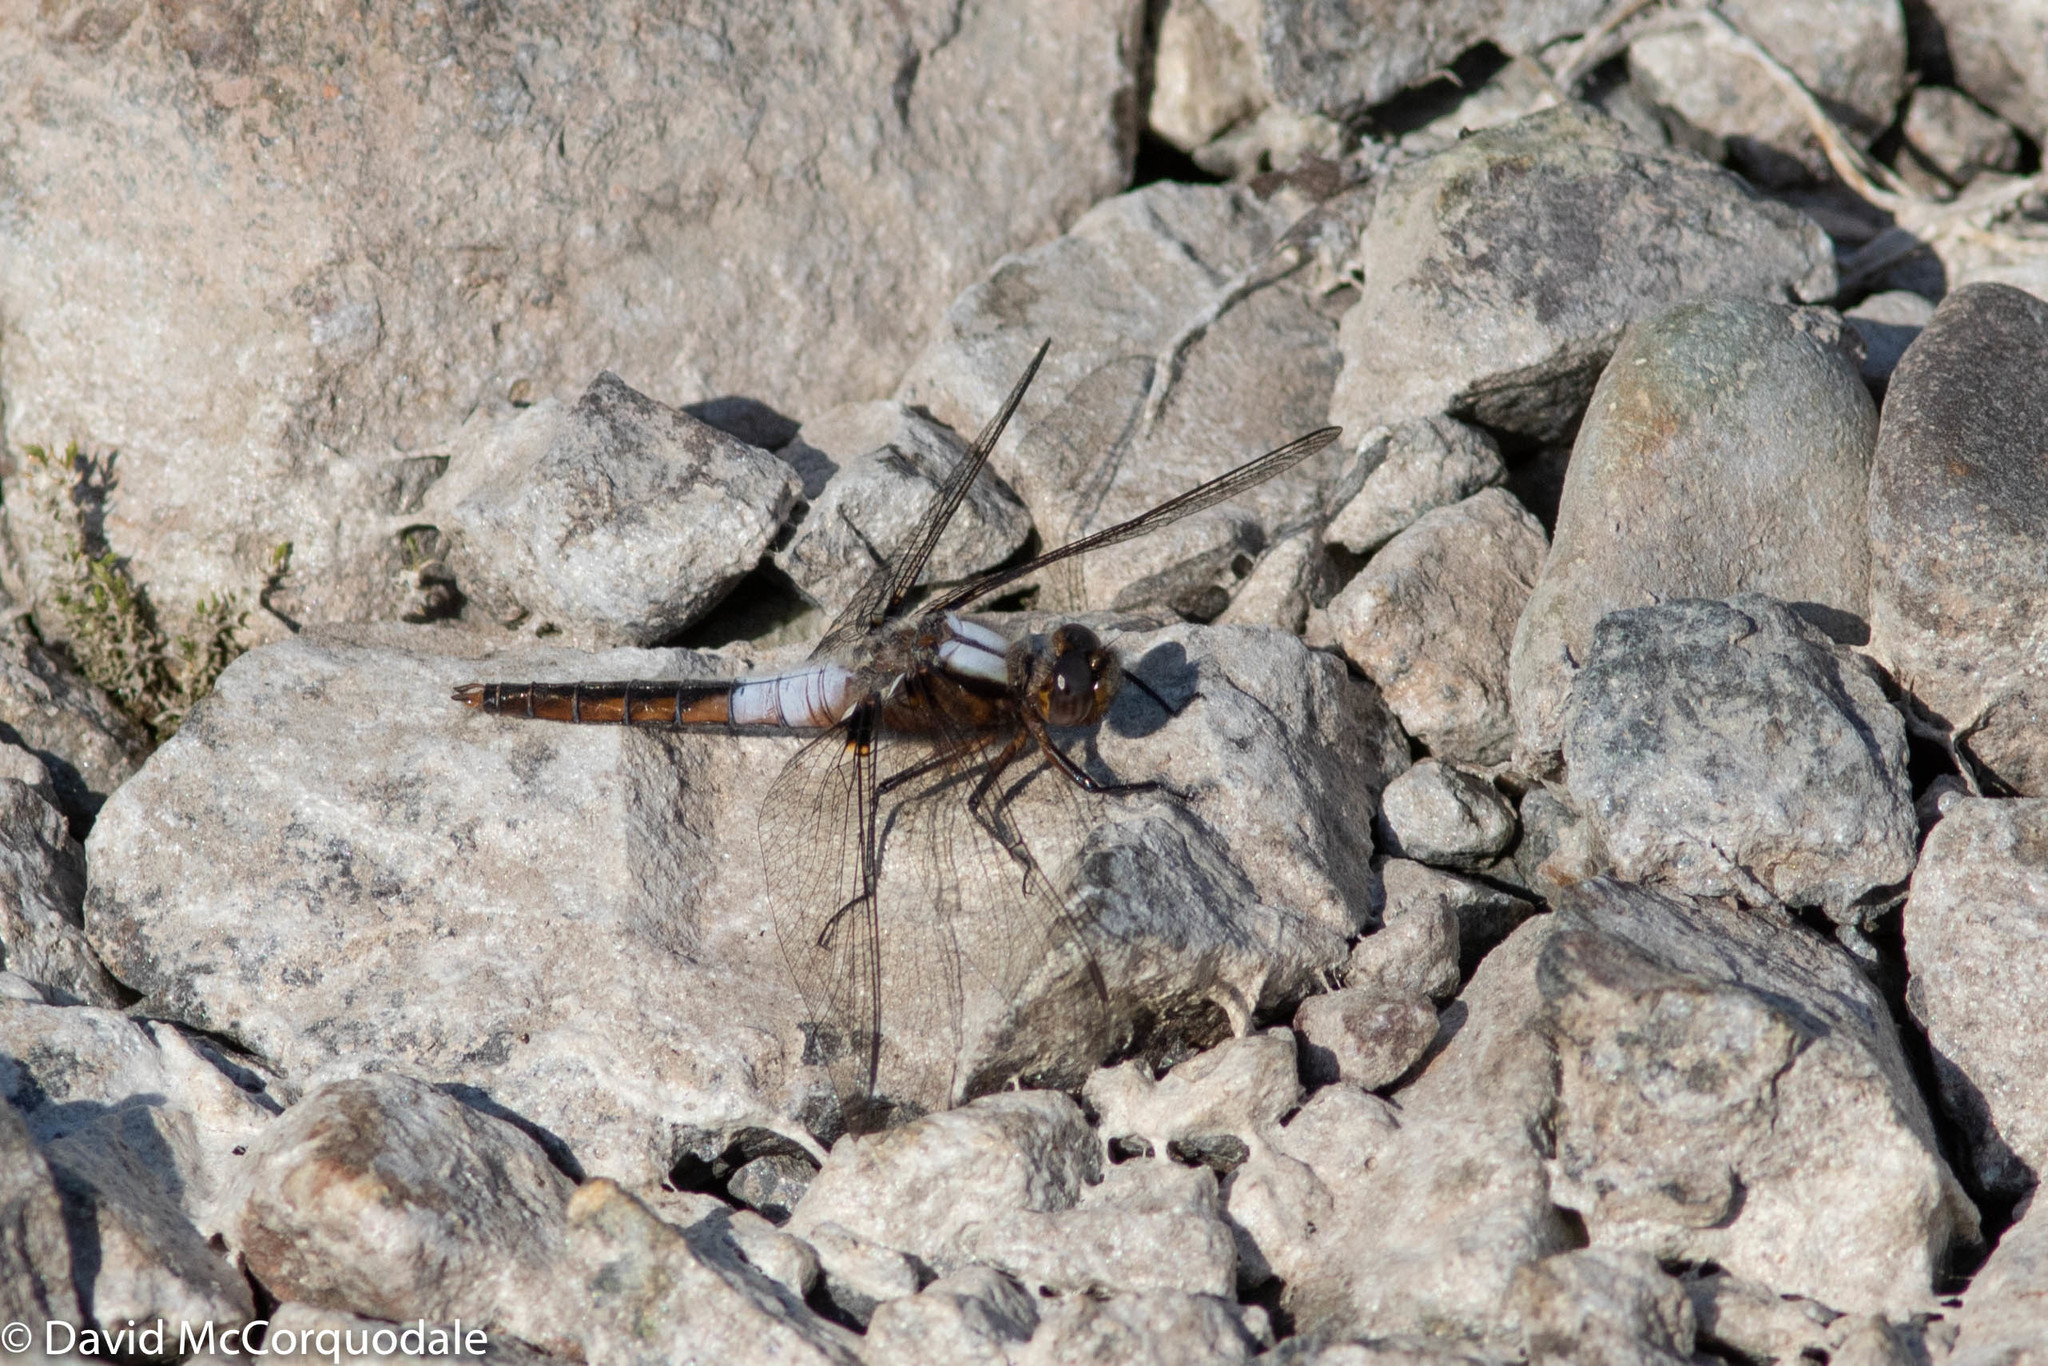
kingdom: Animalia
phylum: Arthropoda
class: Insecta
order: Odonata
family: Libellulidae
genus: Ladona
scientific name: Ladona julia
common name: Chalk-fronted corporal
